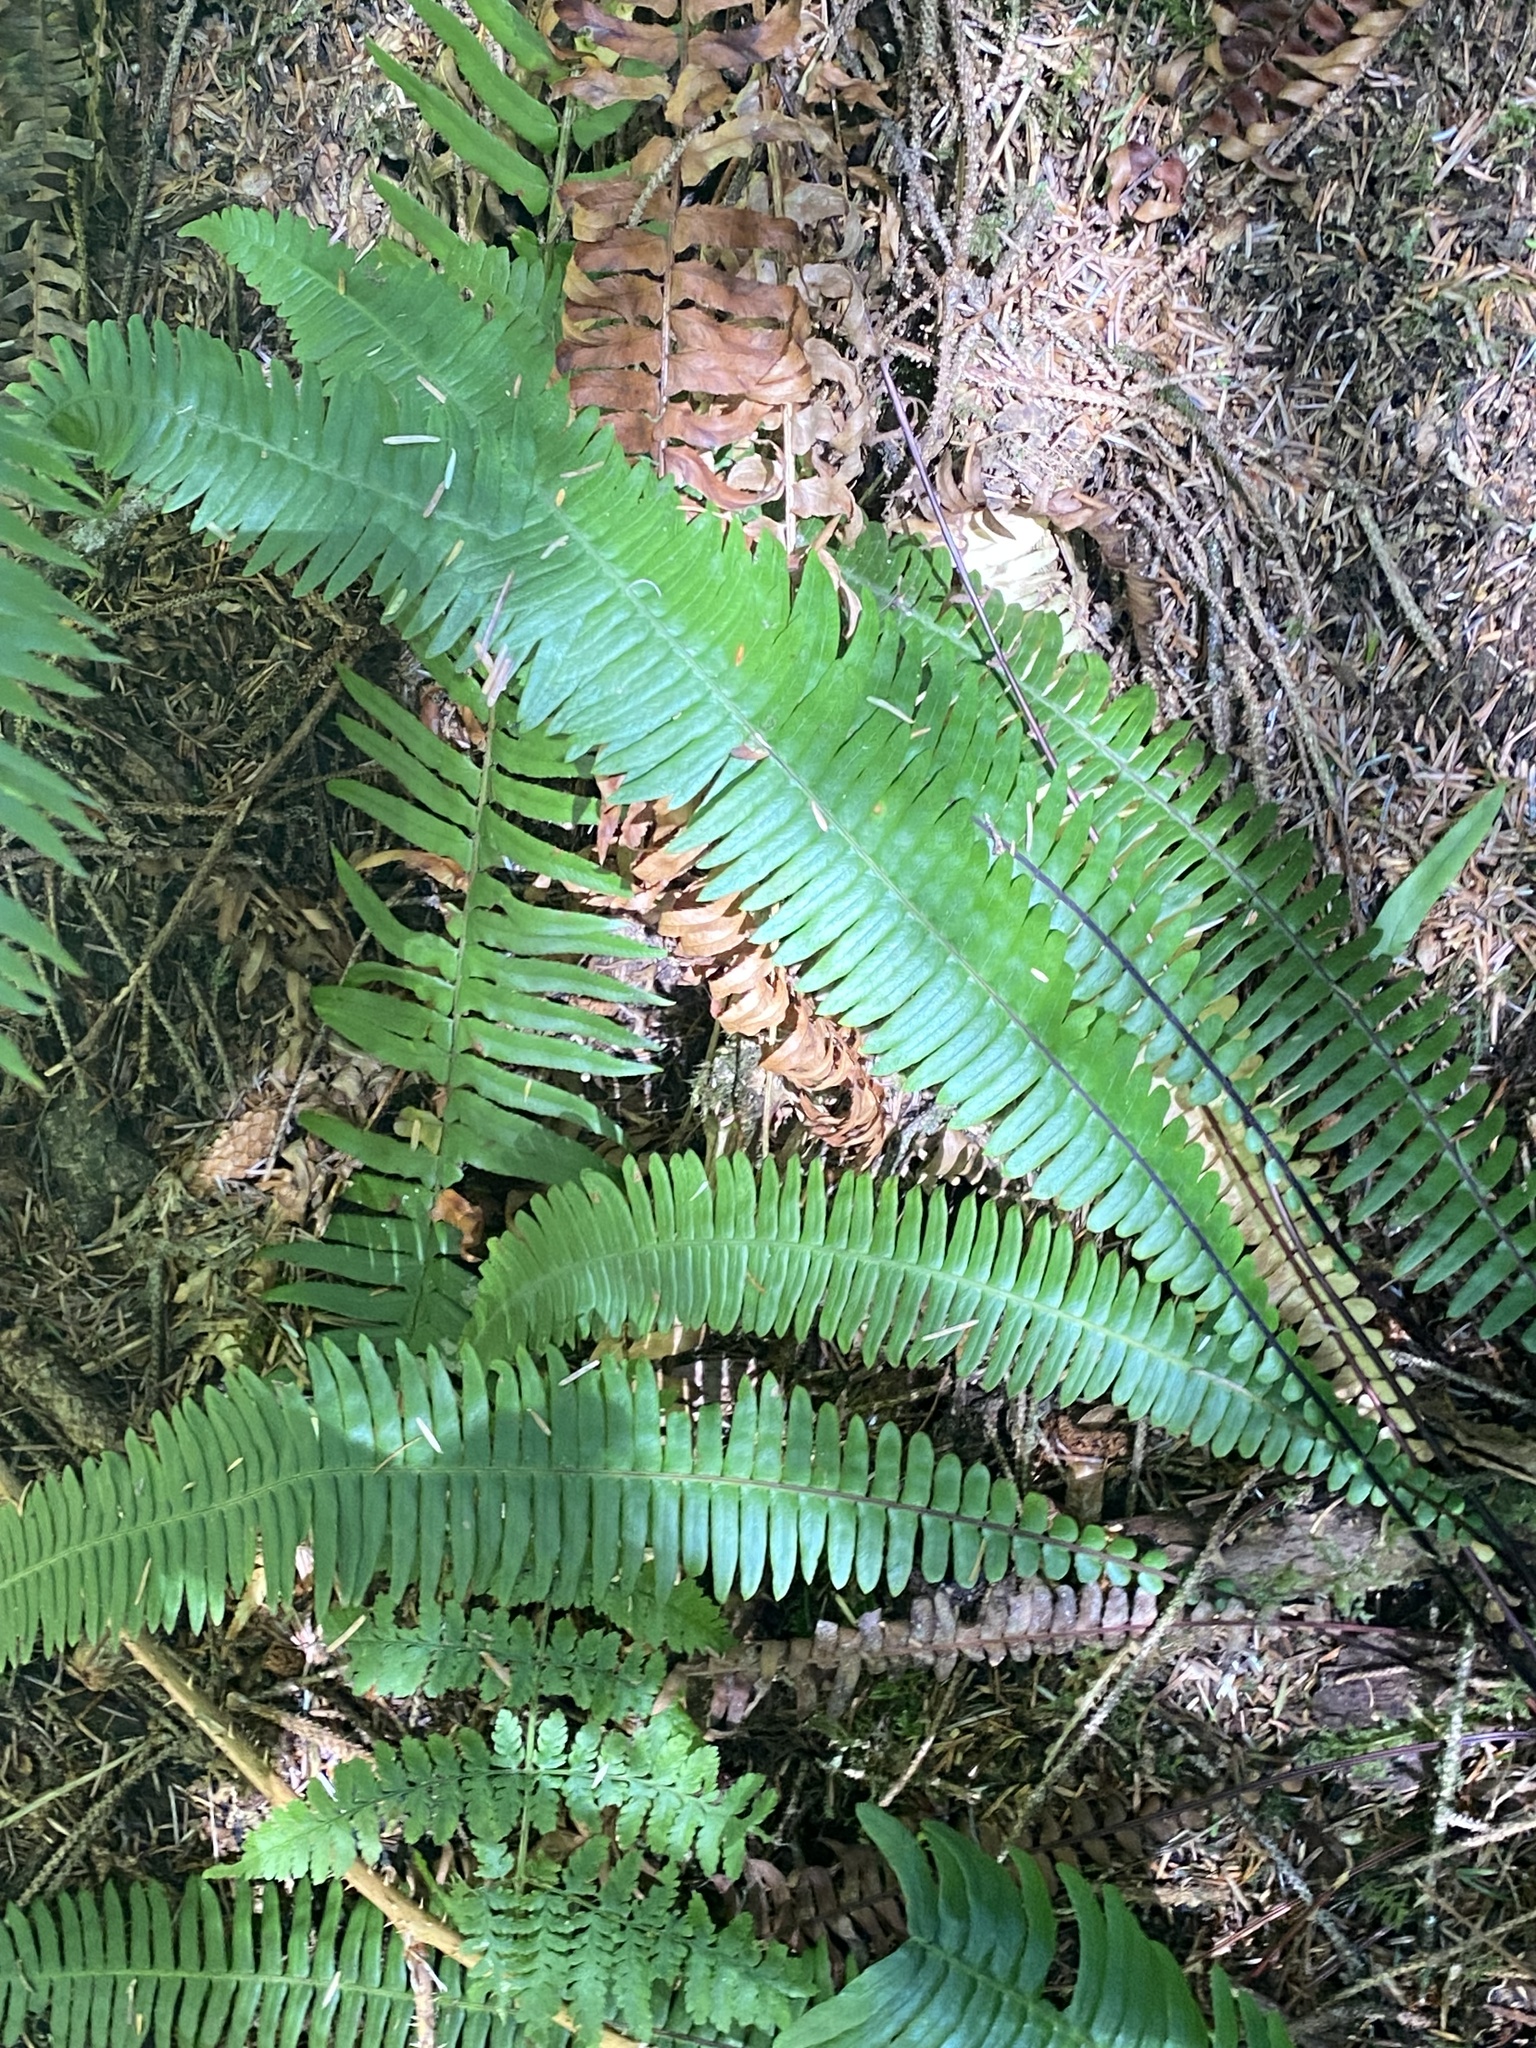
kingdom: Plantae
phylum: Tracheophyta
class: Polypodiopsida
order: Polypodiales
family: Blechnaceae
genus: Struthiopteris
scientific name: Struthiopteris spicant
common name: Deer fern
